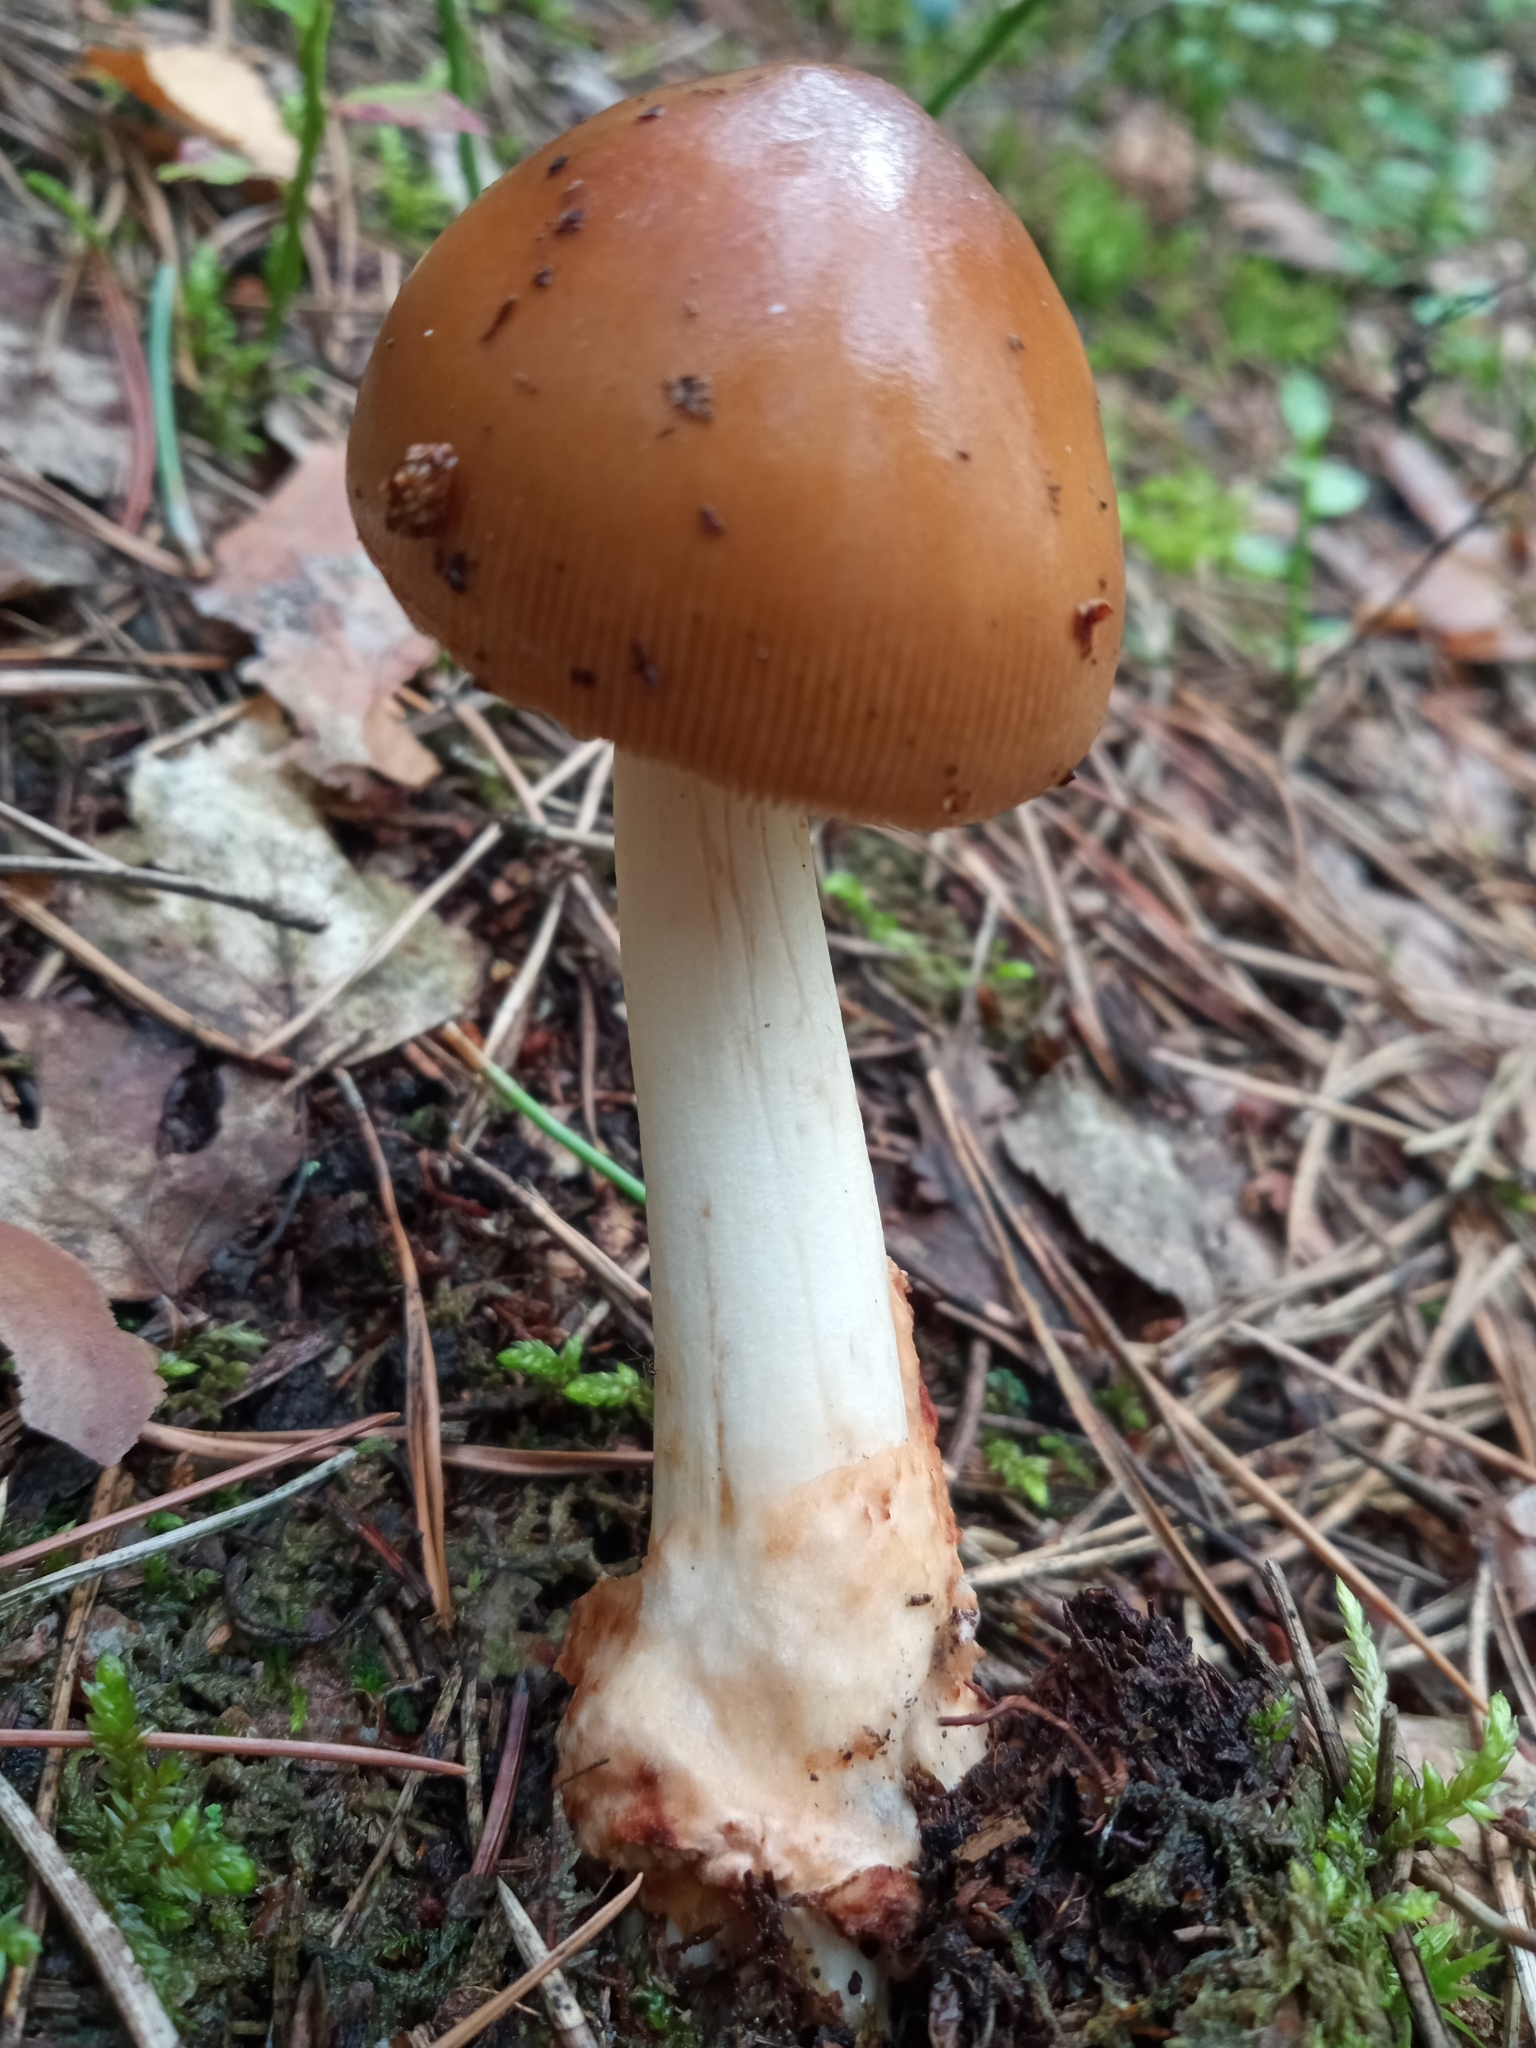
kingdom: Fungi
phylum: Basidiomycota
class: Agaricomycetes
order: Agaricales
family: Amanitaceae
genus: Amanita
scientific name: Amanita fulva
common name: Tawny grisette
